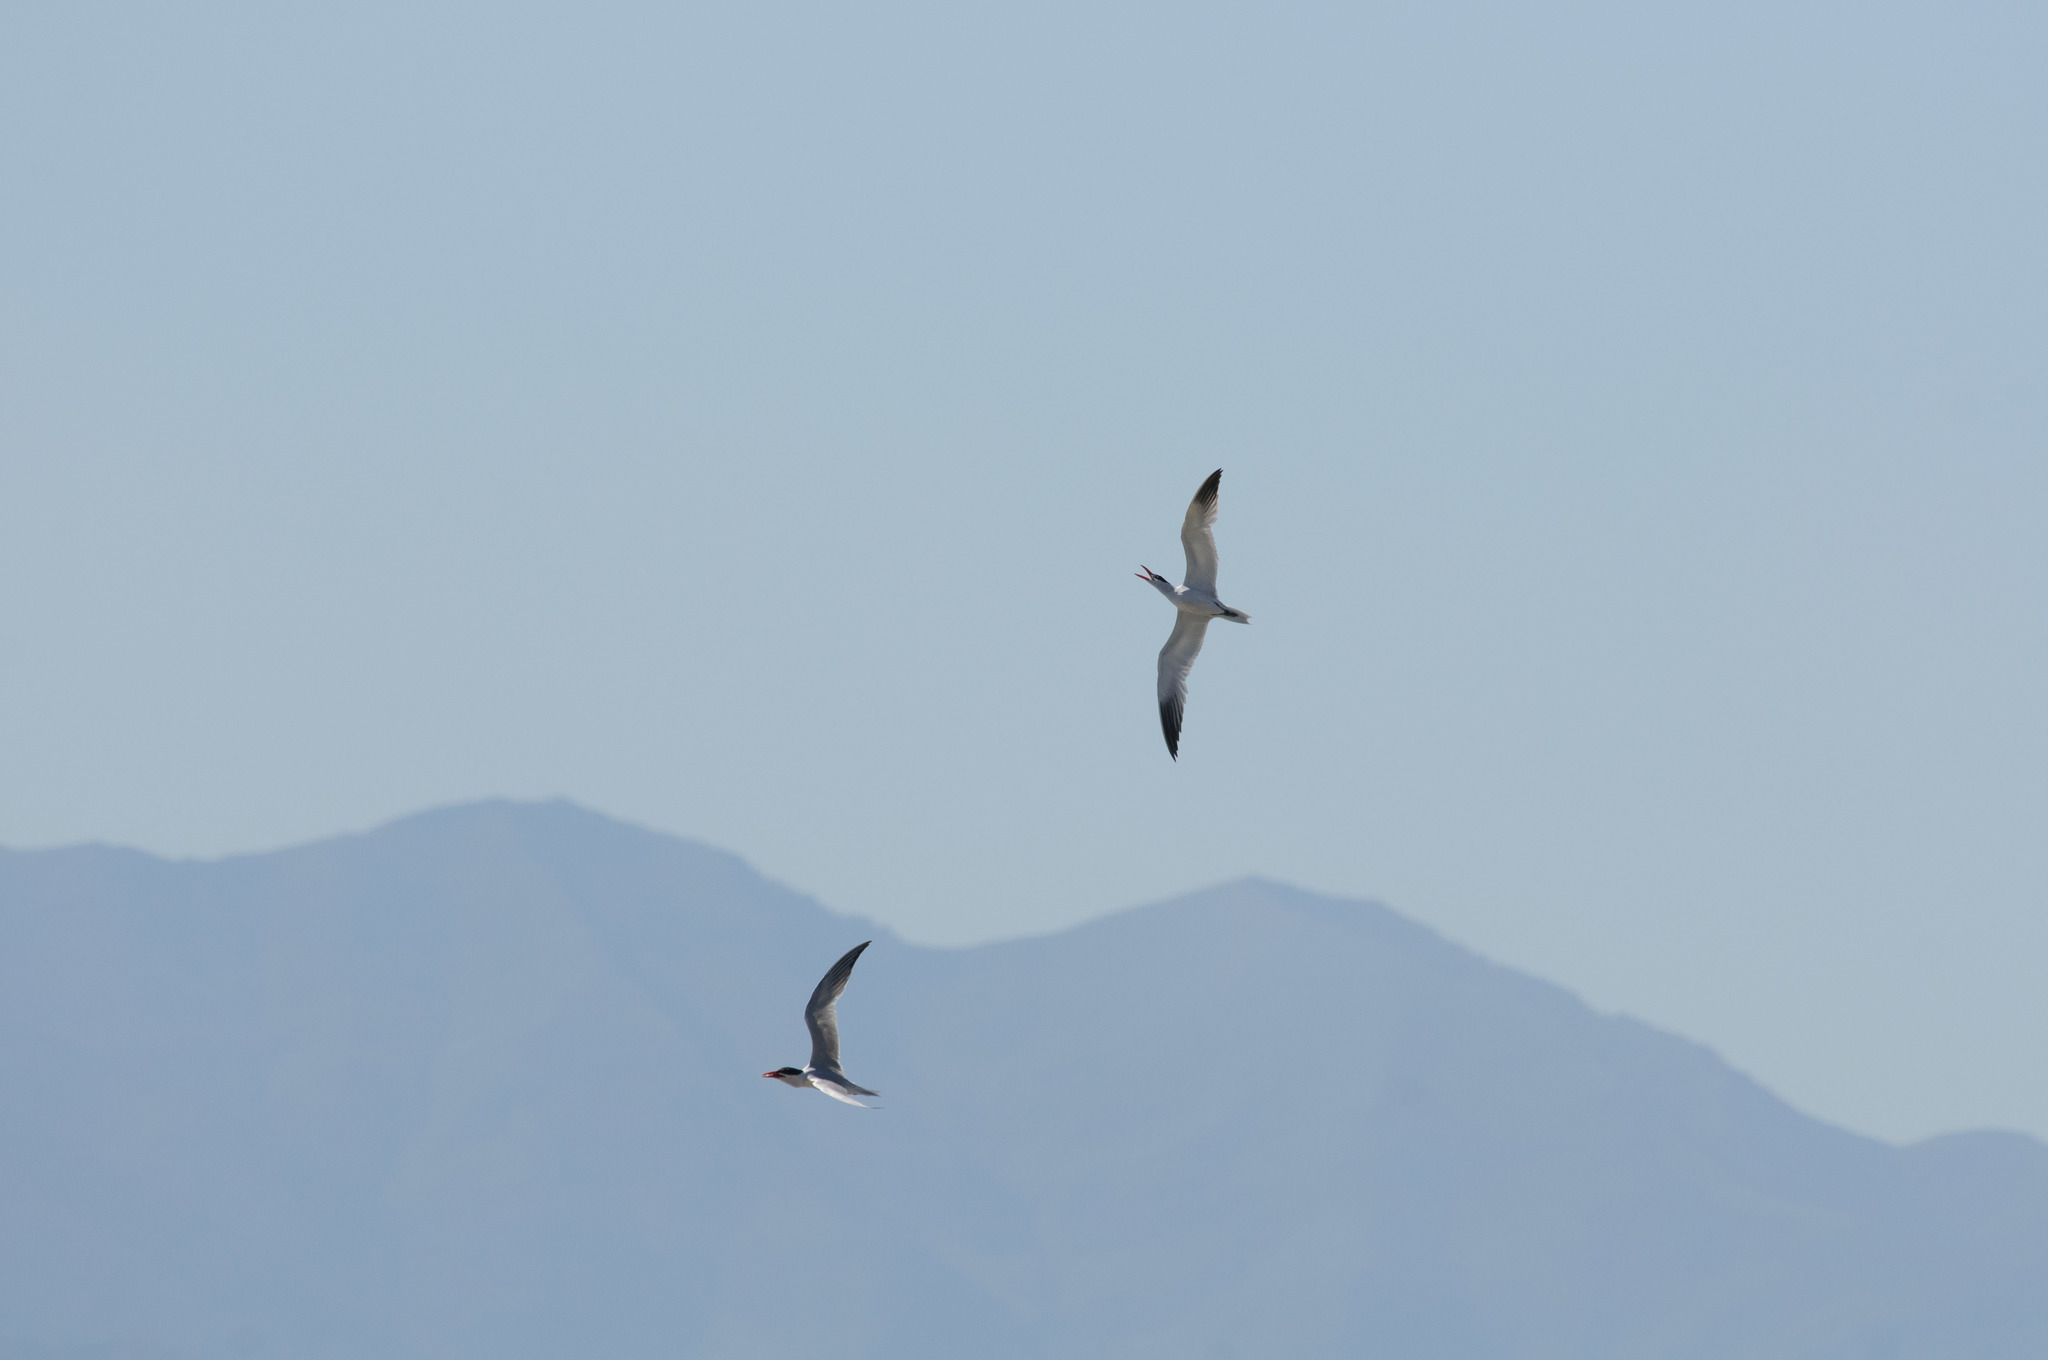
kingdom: Animalia
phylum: Chordata
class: Aves
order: Charadriiformes
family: Laridae
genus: Hydroprogne
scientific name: Hydroprogne caspia
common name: Caspian tern
